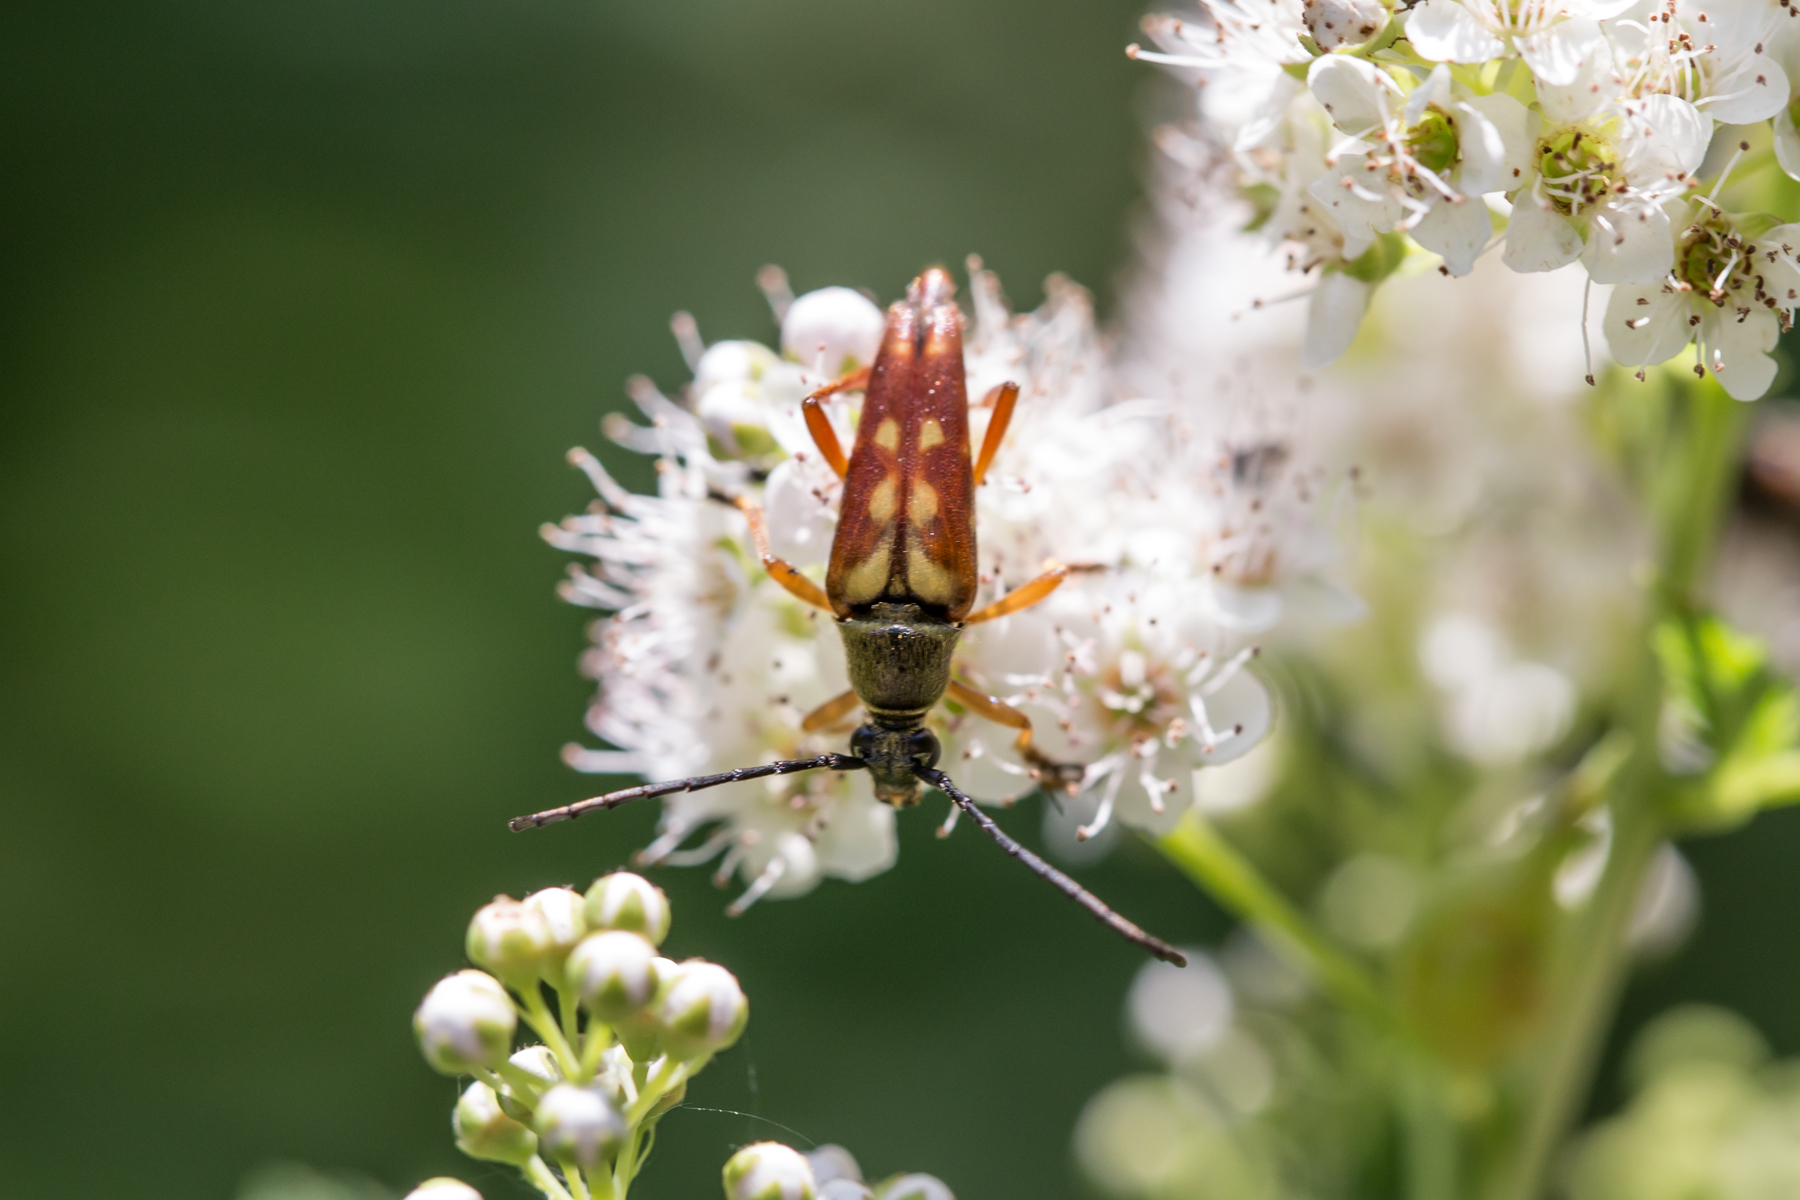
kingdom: Animalia
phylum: Arthropoda
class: Insecta
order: Coleoptera
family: Cerambycidae
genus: Typocerus
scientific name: Typocerus velutinus
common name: Banded longhorn beetle
